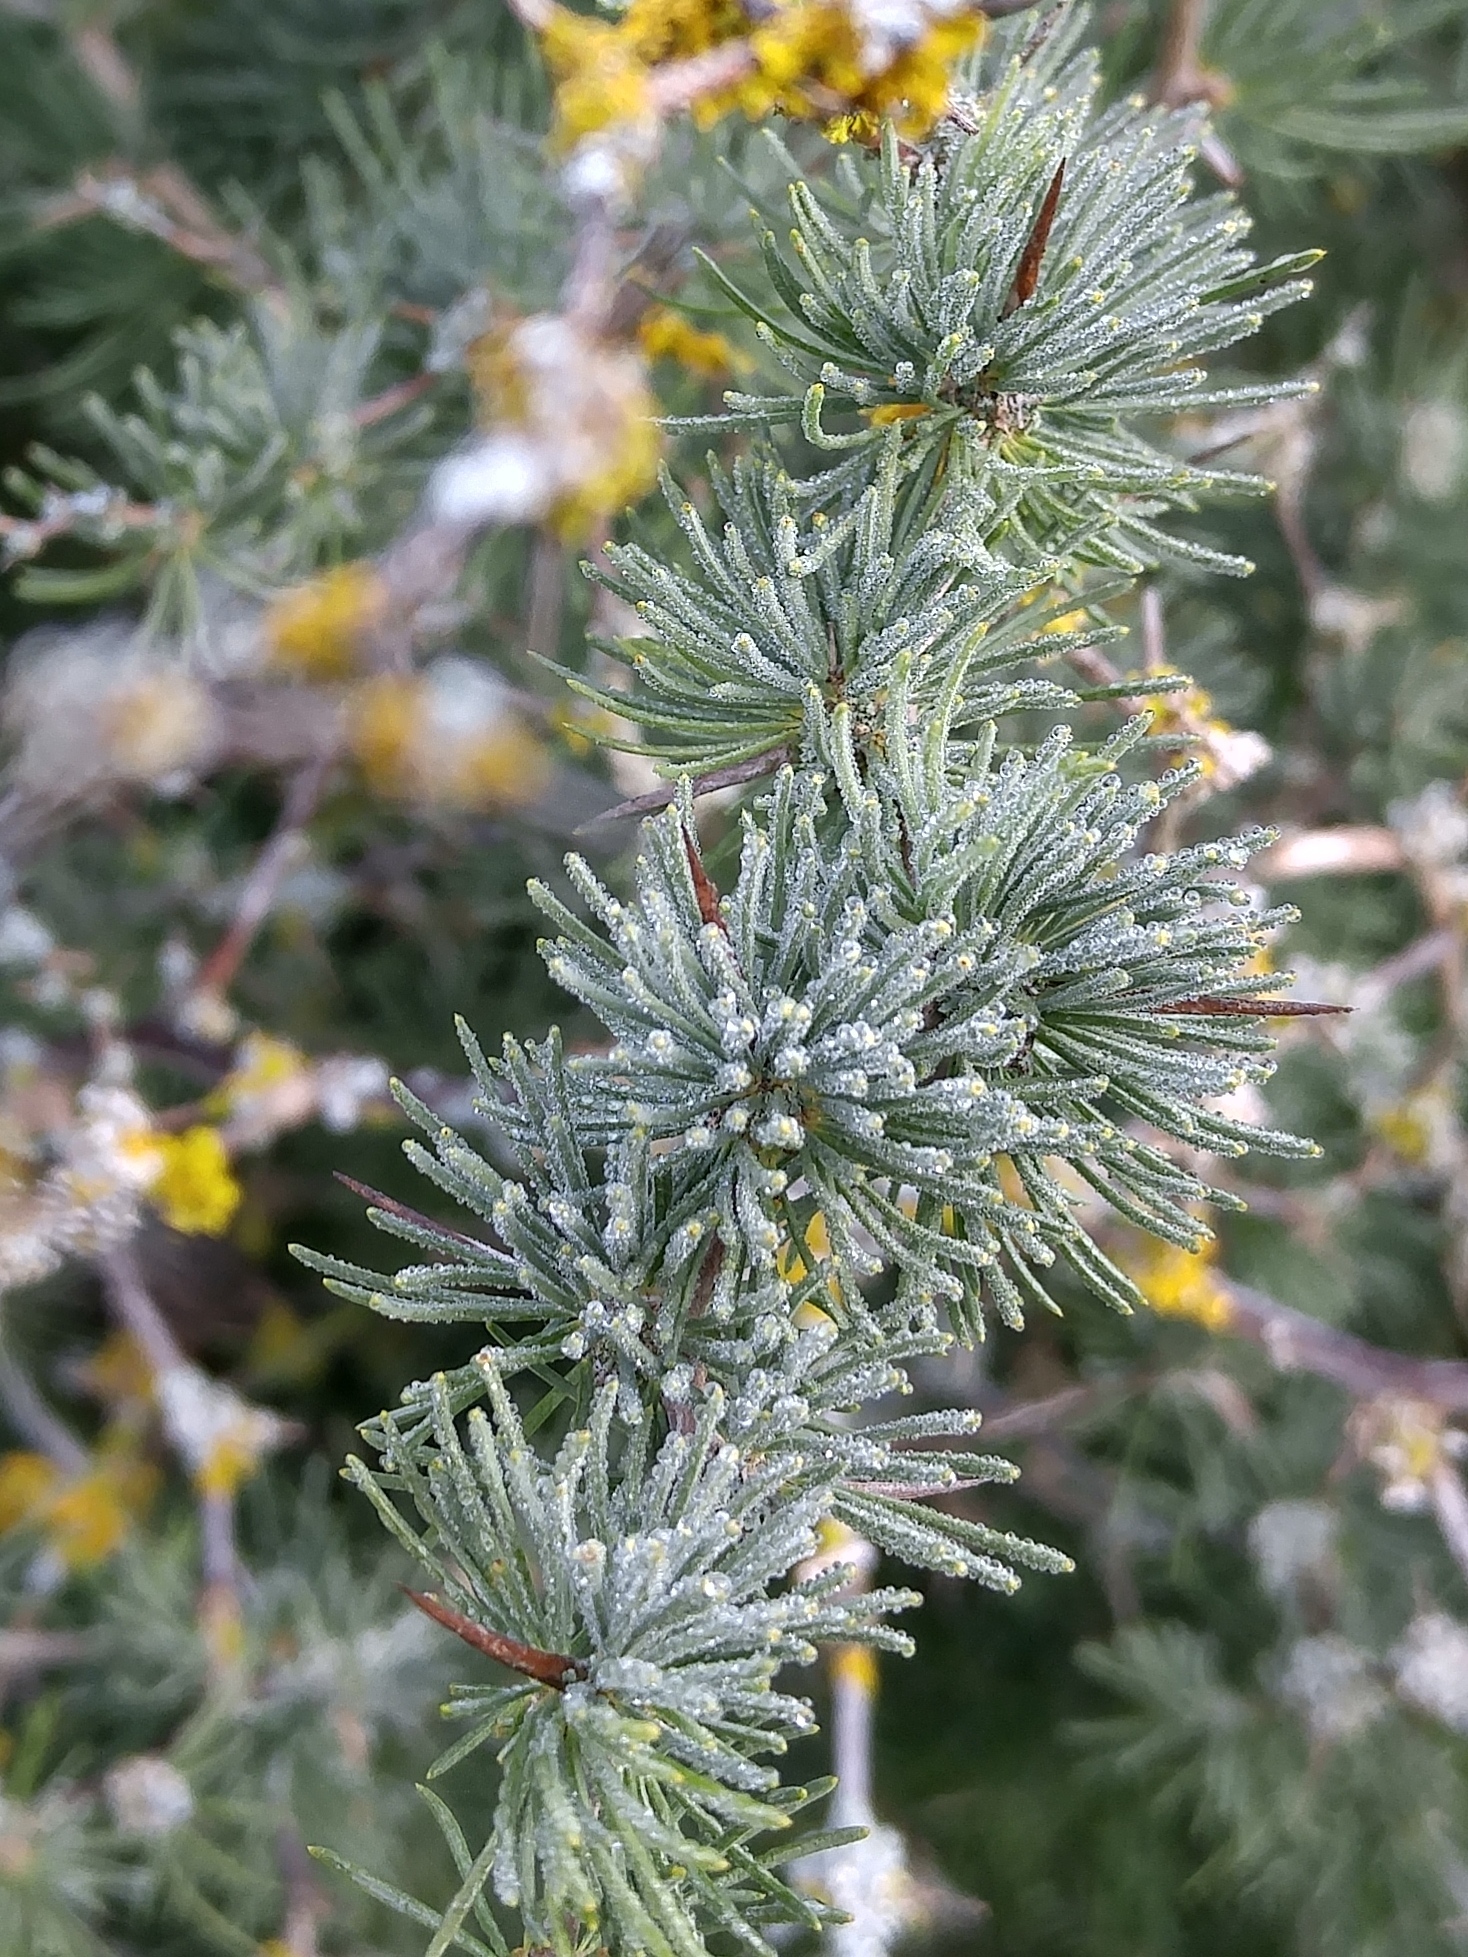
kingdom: Plantae
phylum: Tracheophyta
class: Liliopsida
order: Asparagales
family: Asparagaceae
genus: Asparagus
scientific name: Asparagus albus
